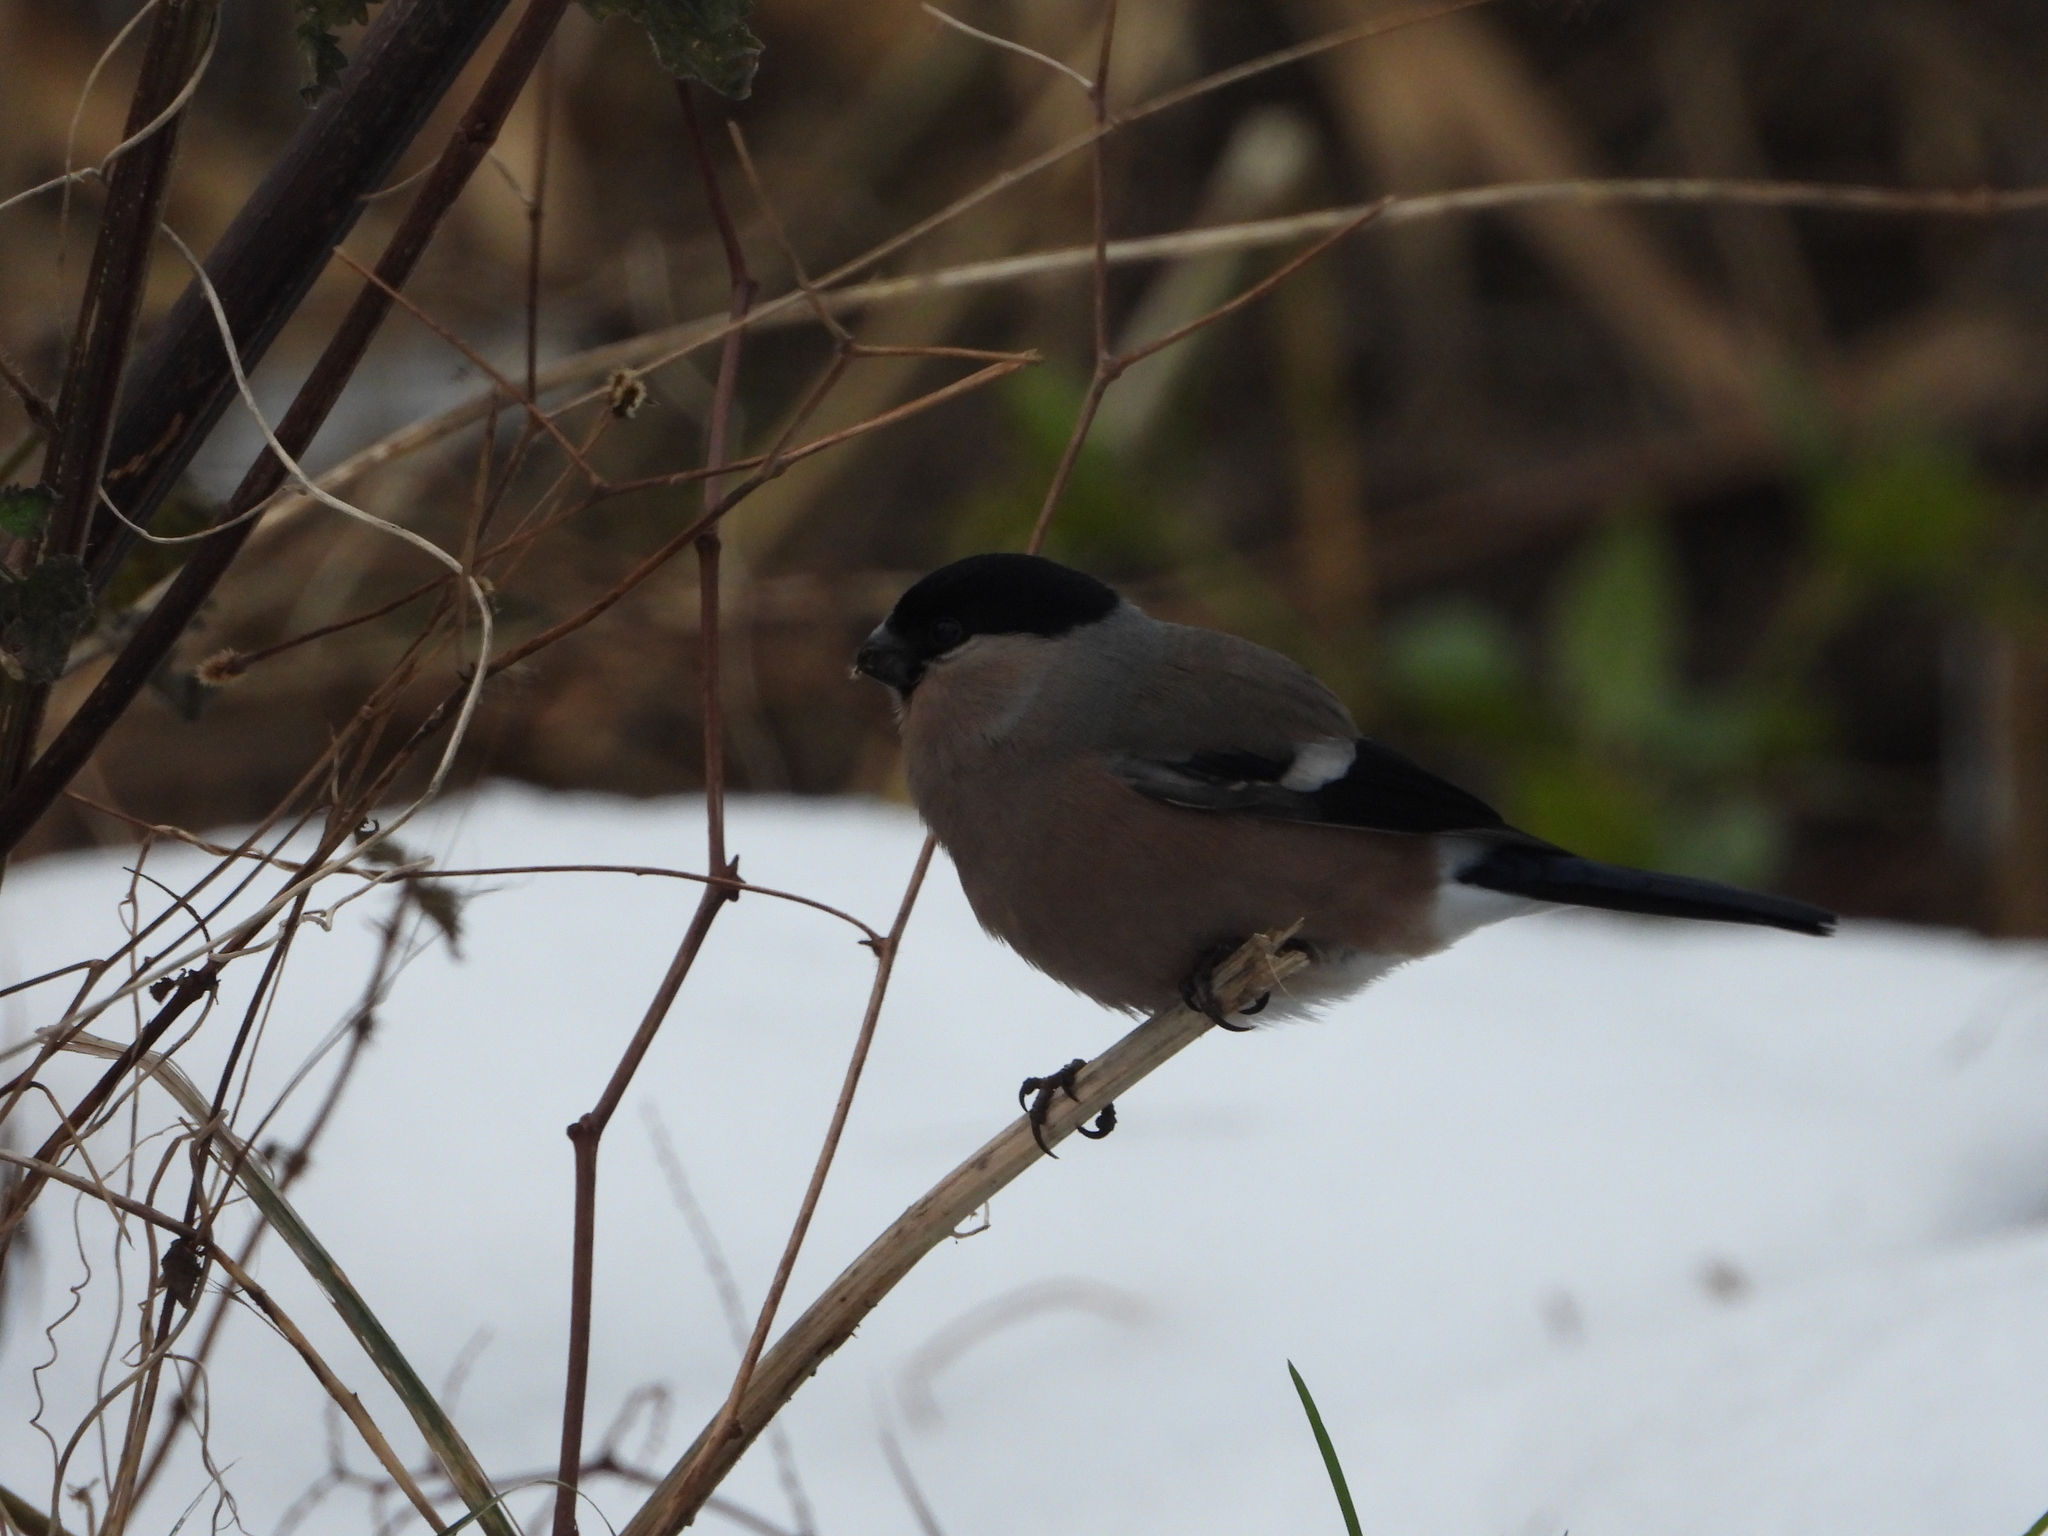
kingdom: Animalia
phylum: Chordata
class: Aves
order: Passeriformes
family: Fringillidae
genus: Pyrrhula
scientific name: Pyrrhula pyrrhula
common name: Eurasian bullfinch
